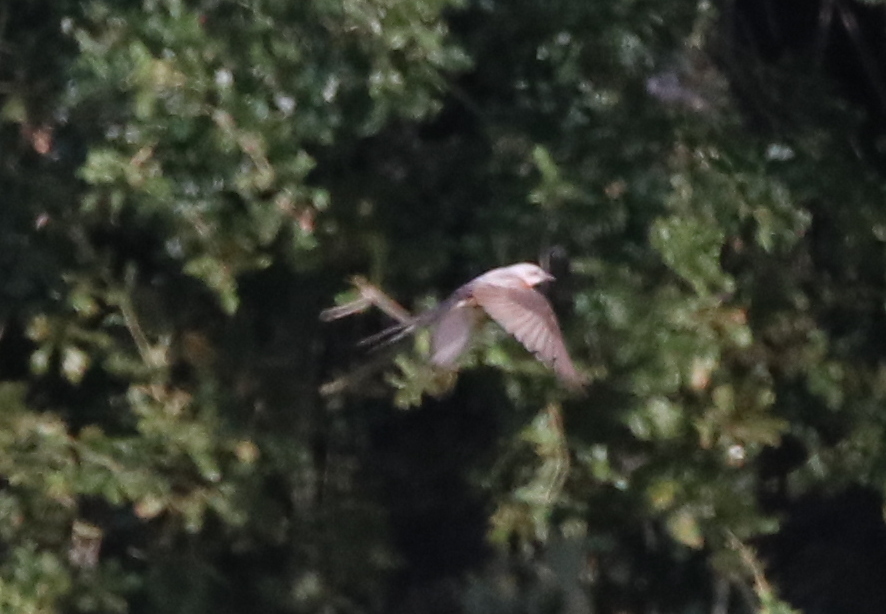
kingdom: Animalia
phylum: Chordata
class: Aves
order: Passeriformes
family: Tyrannidae
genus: Tyrannus
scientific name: Tyrannus forficatus
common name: Scissor-tailed flycatcher
